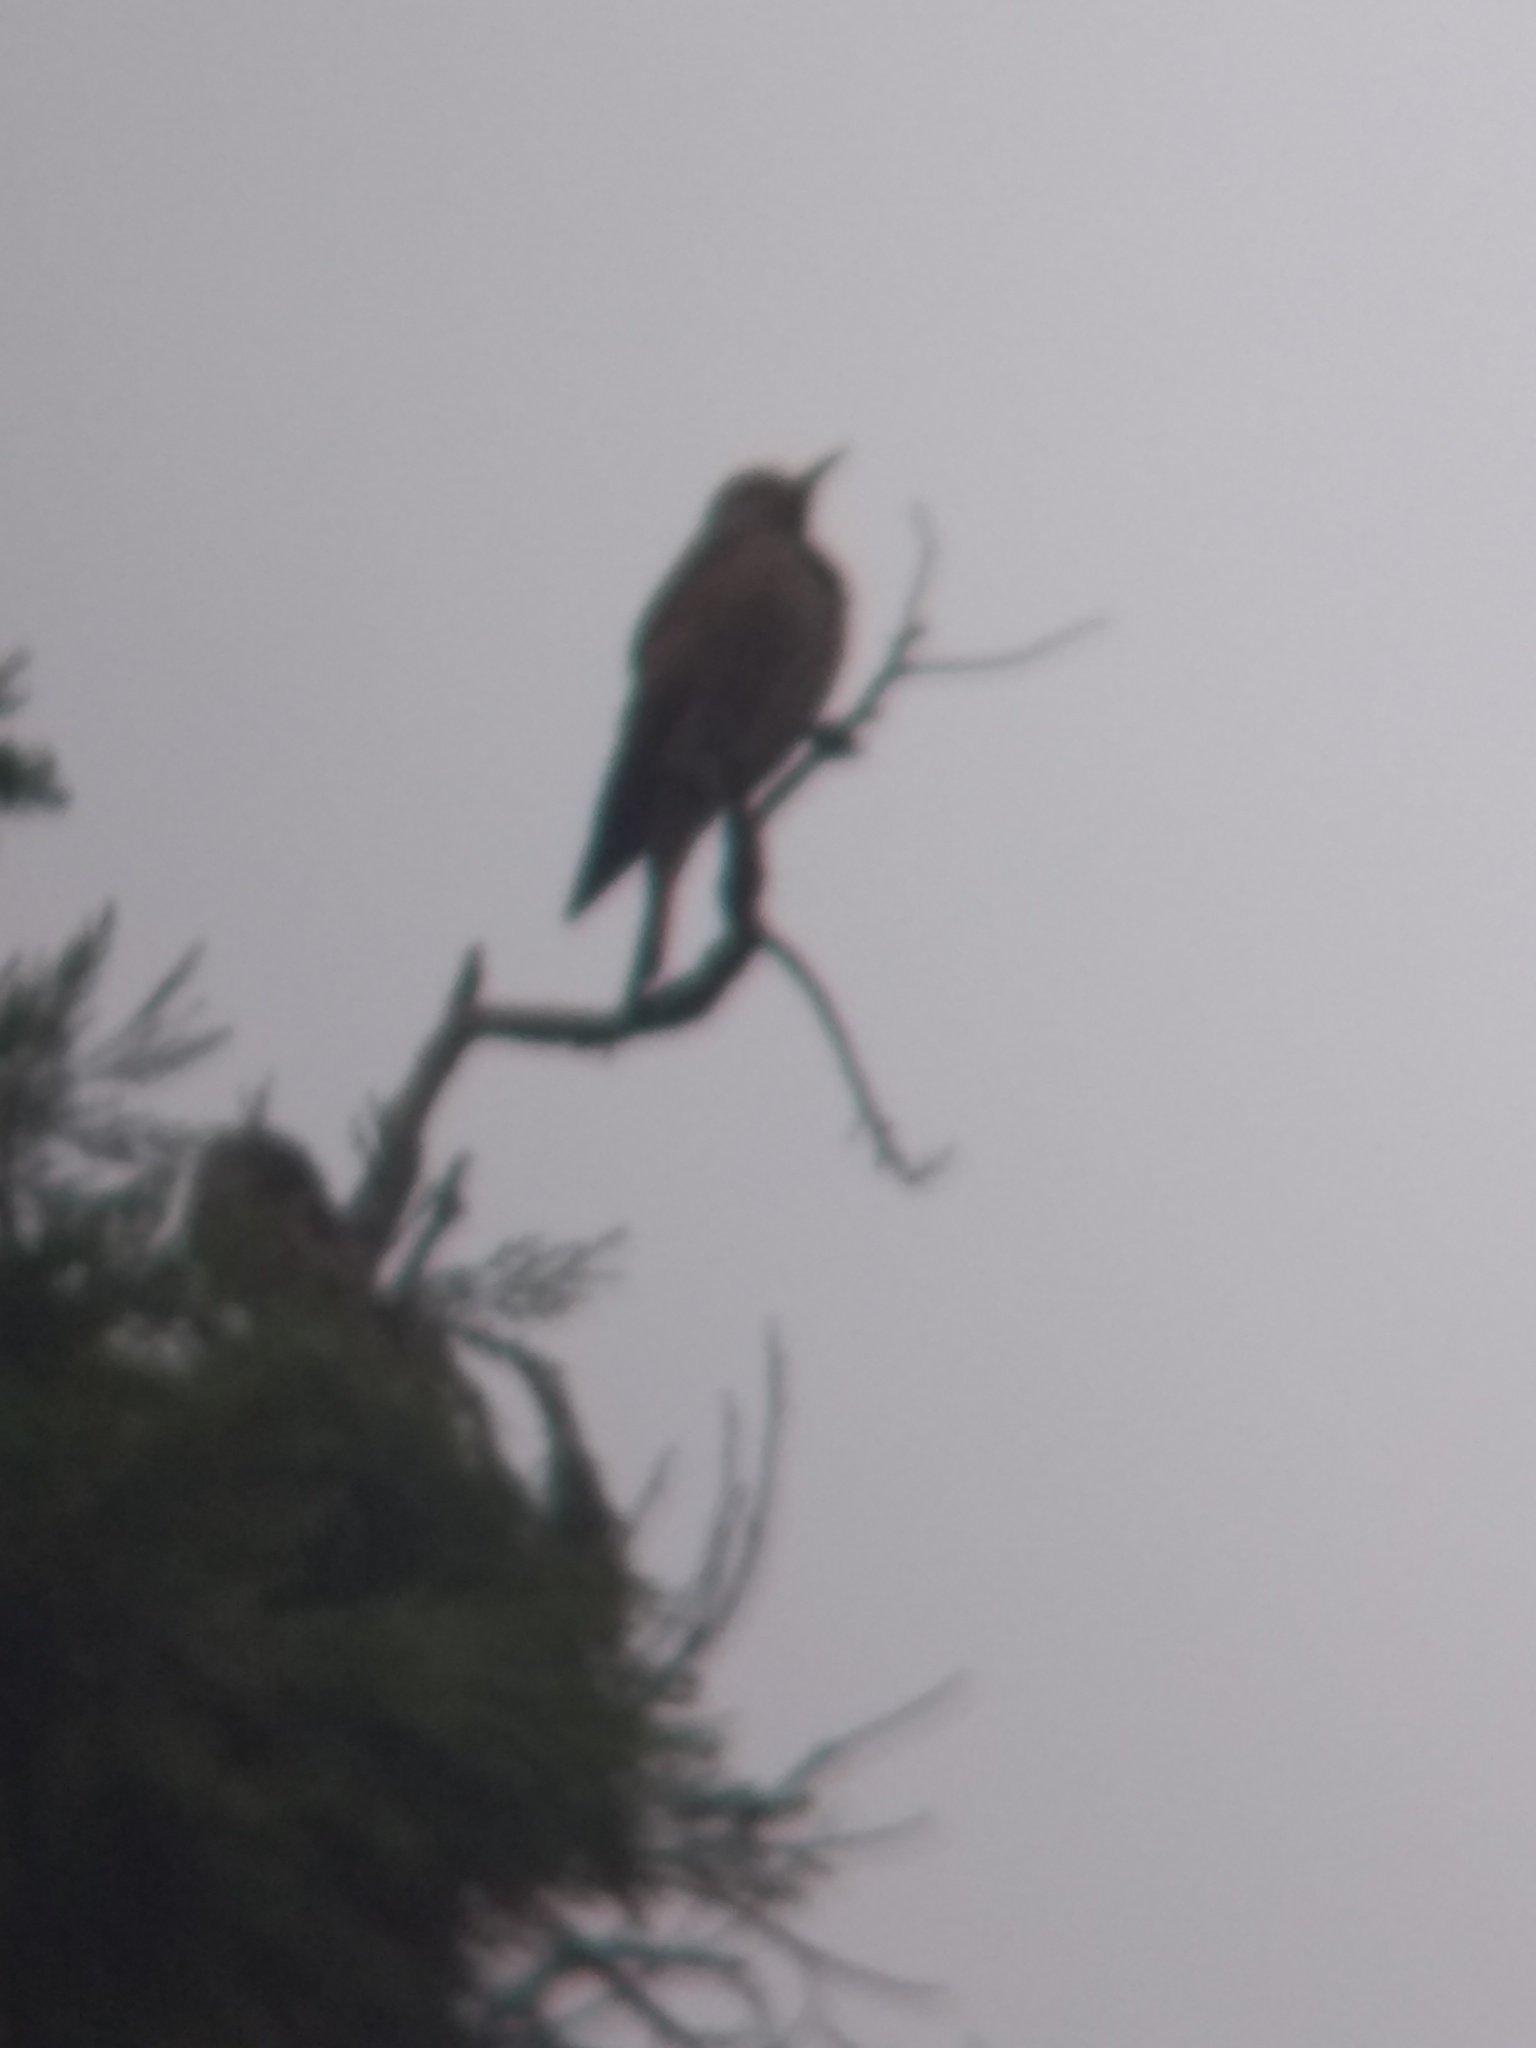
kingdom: Animalia
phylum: Chordata
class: Aves
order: Piciformes
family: Picidae
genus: Colaptes
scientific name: Colaptes auratus
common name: Northern flicker
